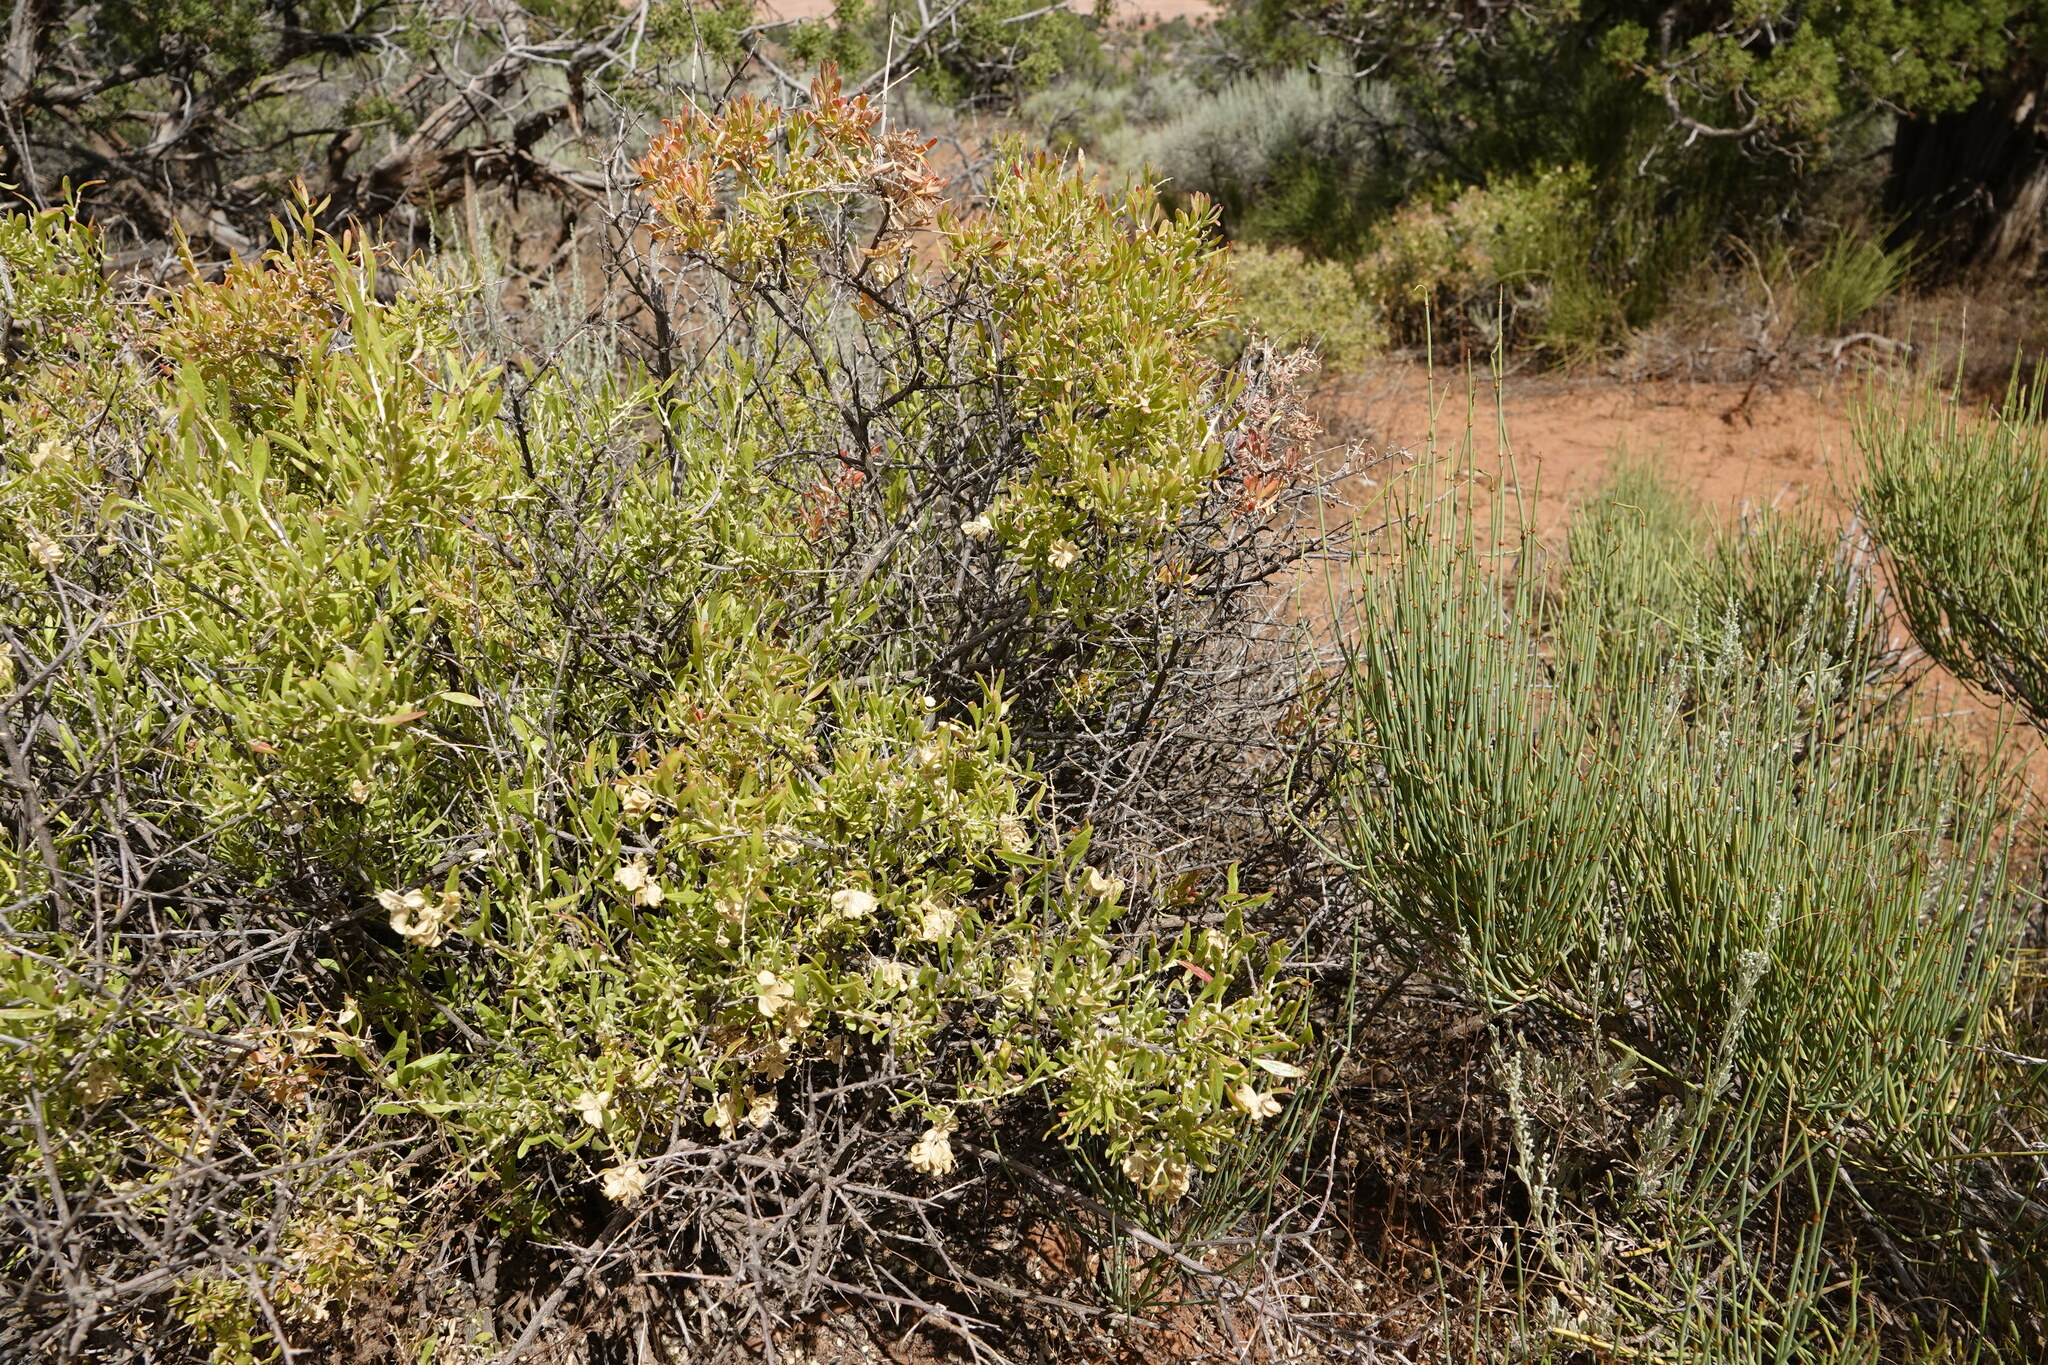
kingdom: Plantae
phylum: Tracheophyta
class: Magnoliopsida
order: Caryophyllales
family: Amaranthaceae
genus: Grayia
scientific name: Grayia spinosa
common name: Spiny hopsage
